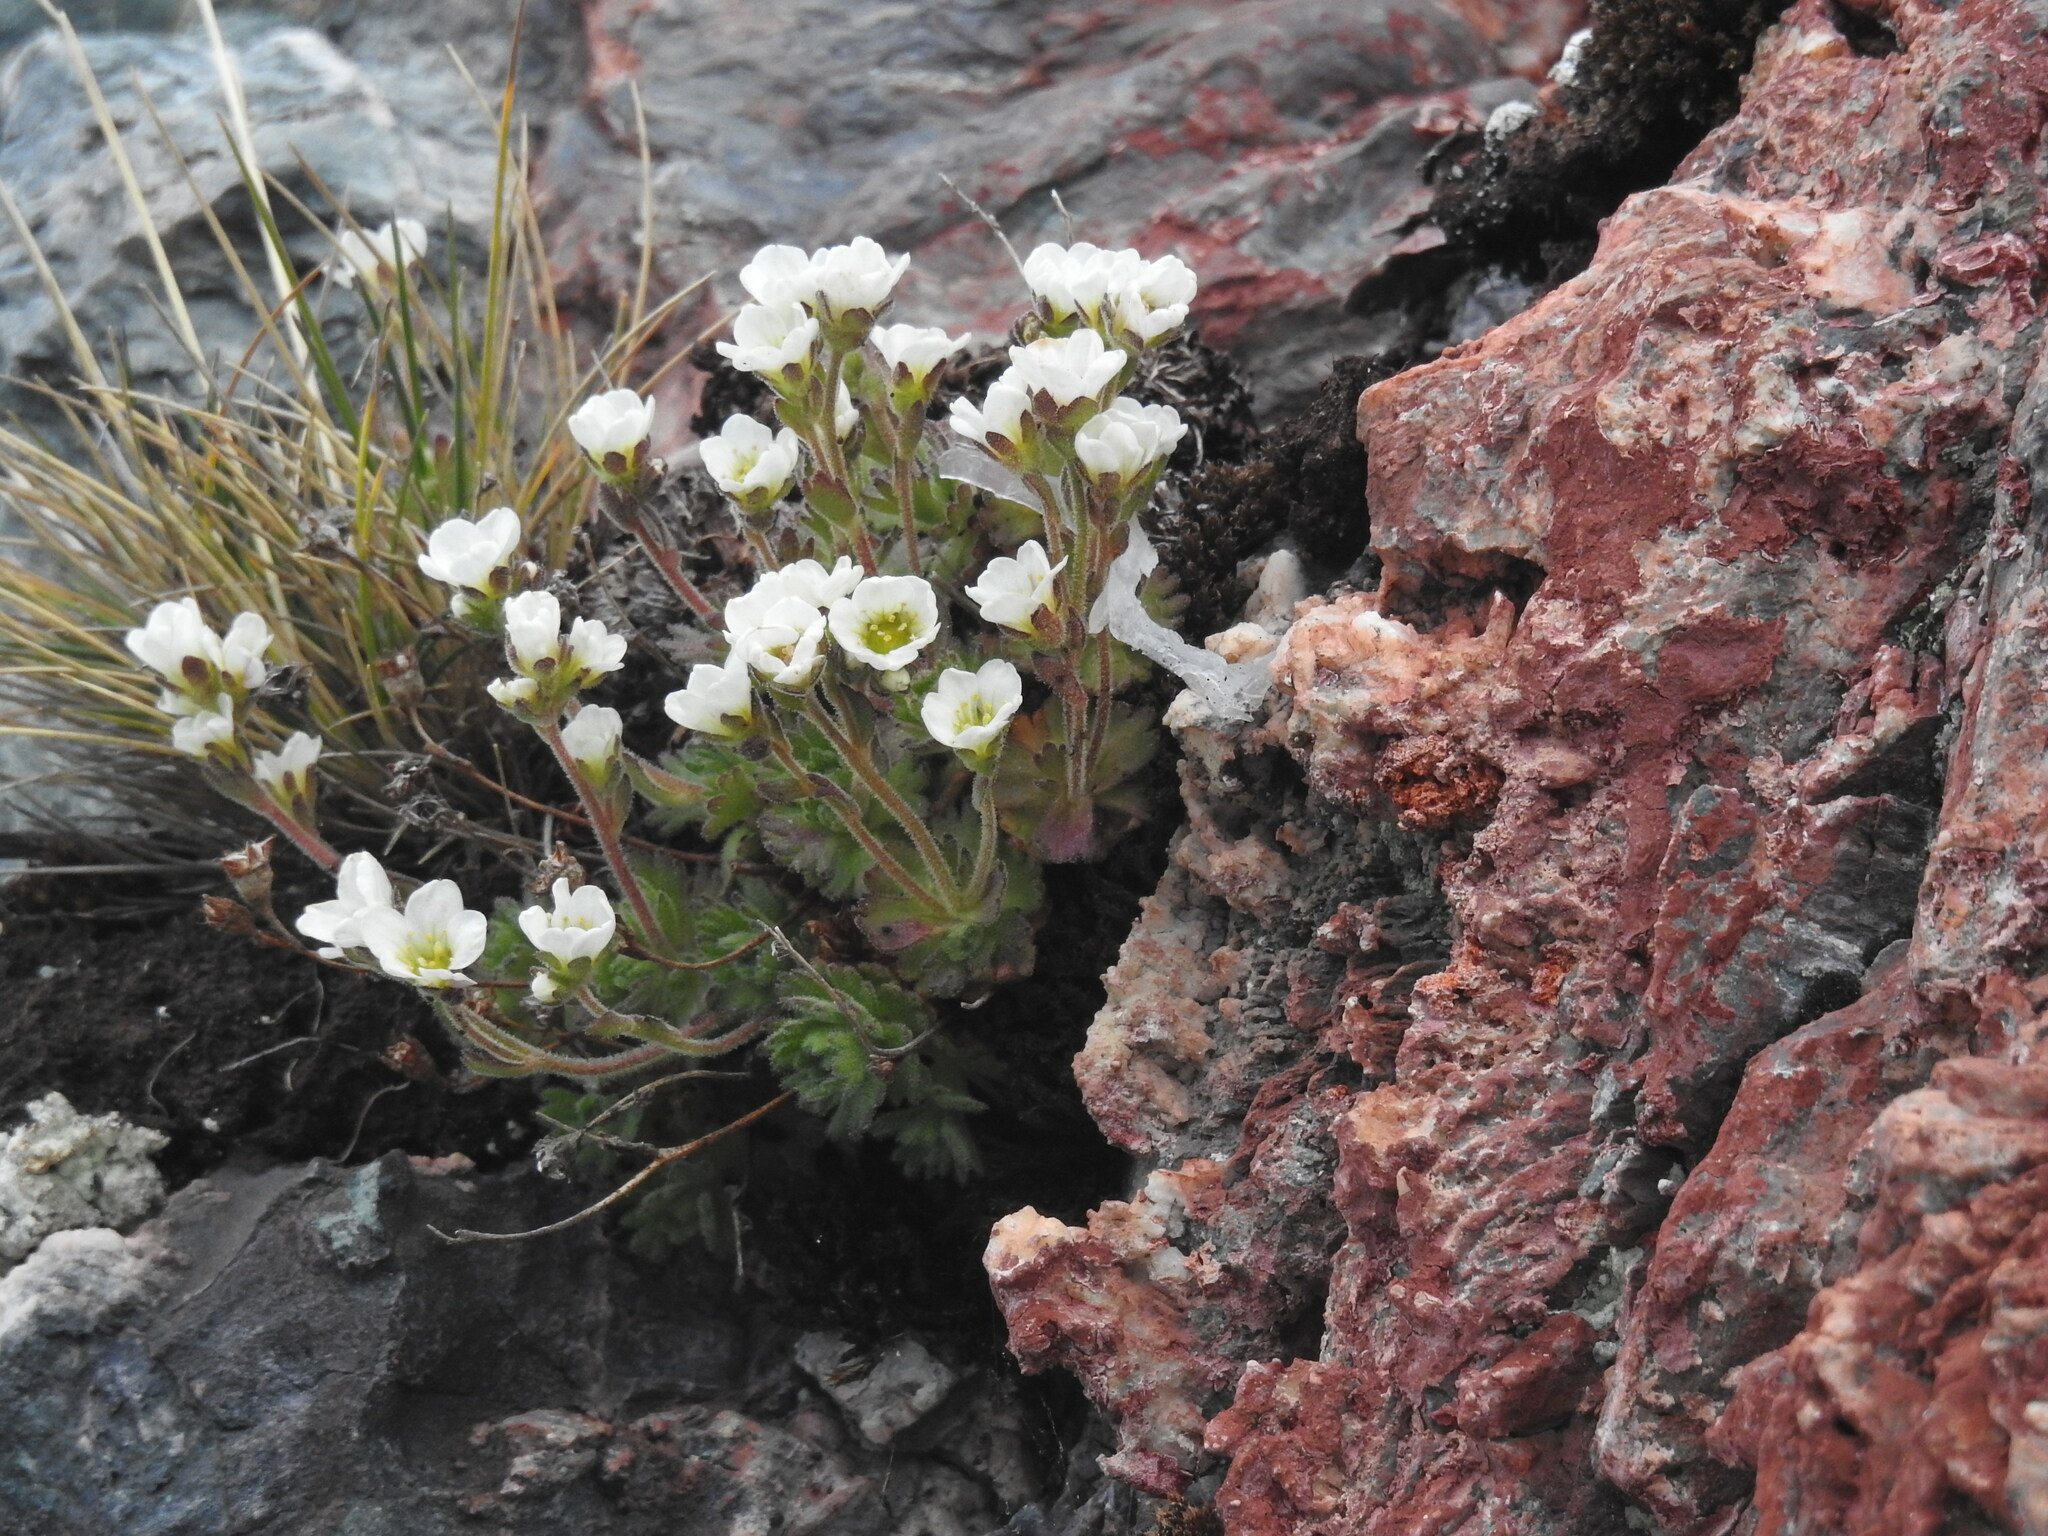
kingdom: Plantae
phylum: Tracheophyta
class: Magnoliopsida
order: Saxifragales
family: Saxifragaceae
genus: Saxifraga
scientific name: Saxifraga magellanica
